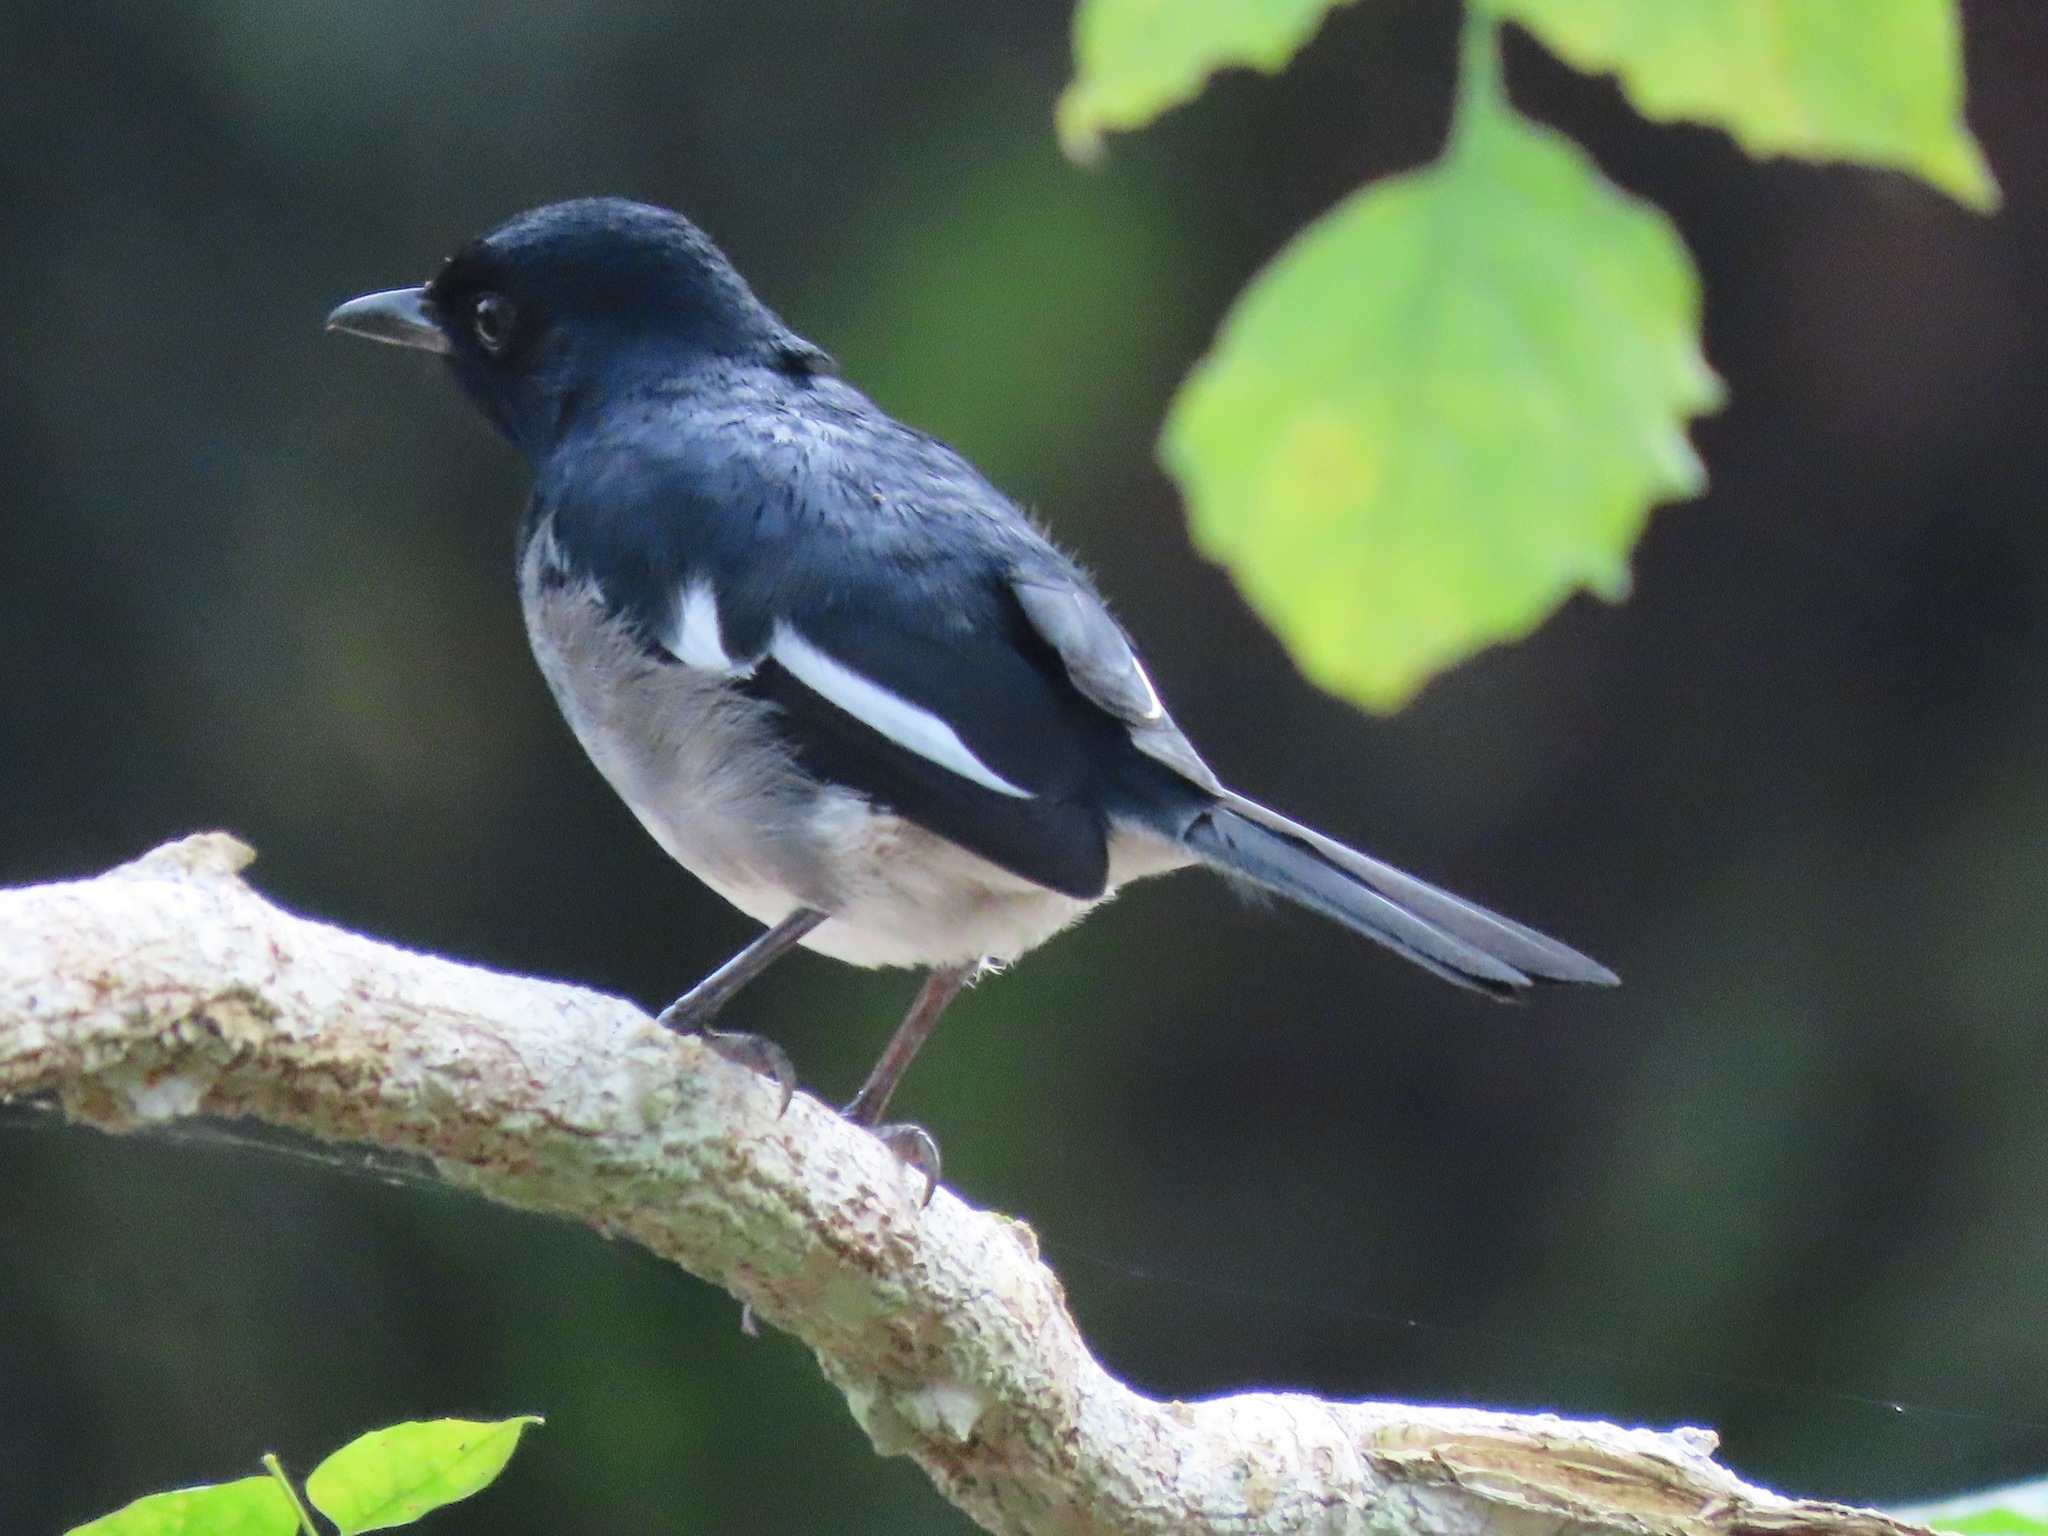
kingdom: Animalia
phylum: Chordata
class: Aves
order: Passeriformes
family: Muscicapidae
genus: Copsychus
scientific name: Copsychus saularis
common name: Oriental magpie-robin
